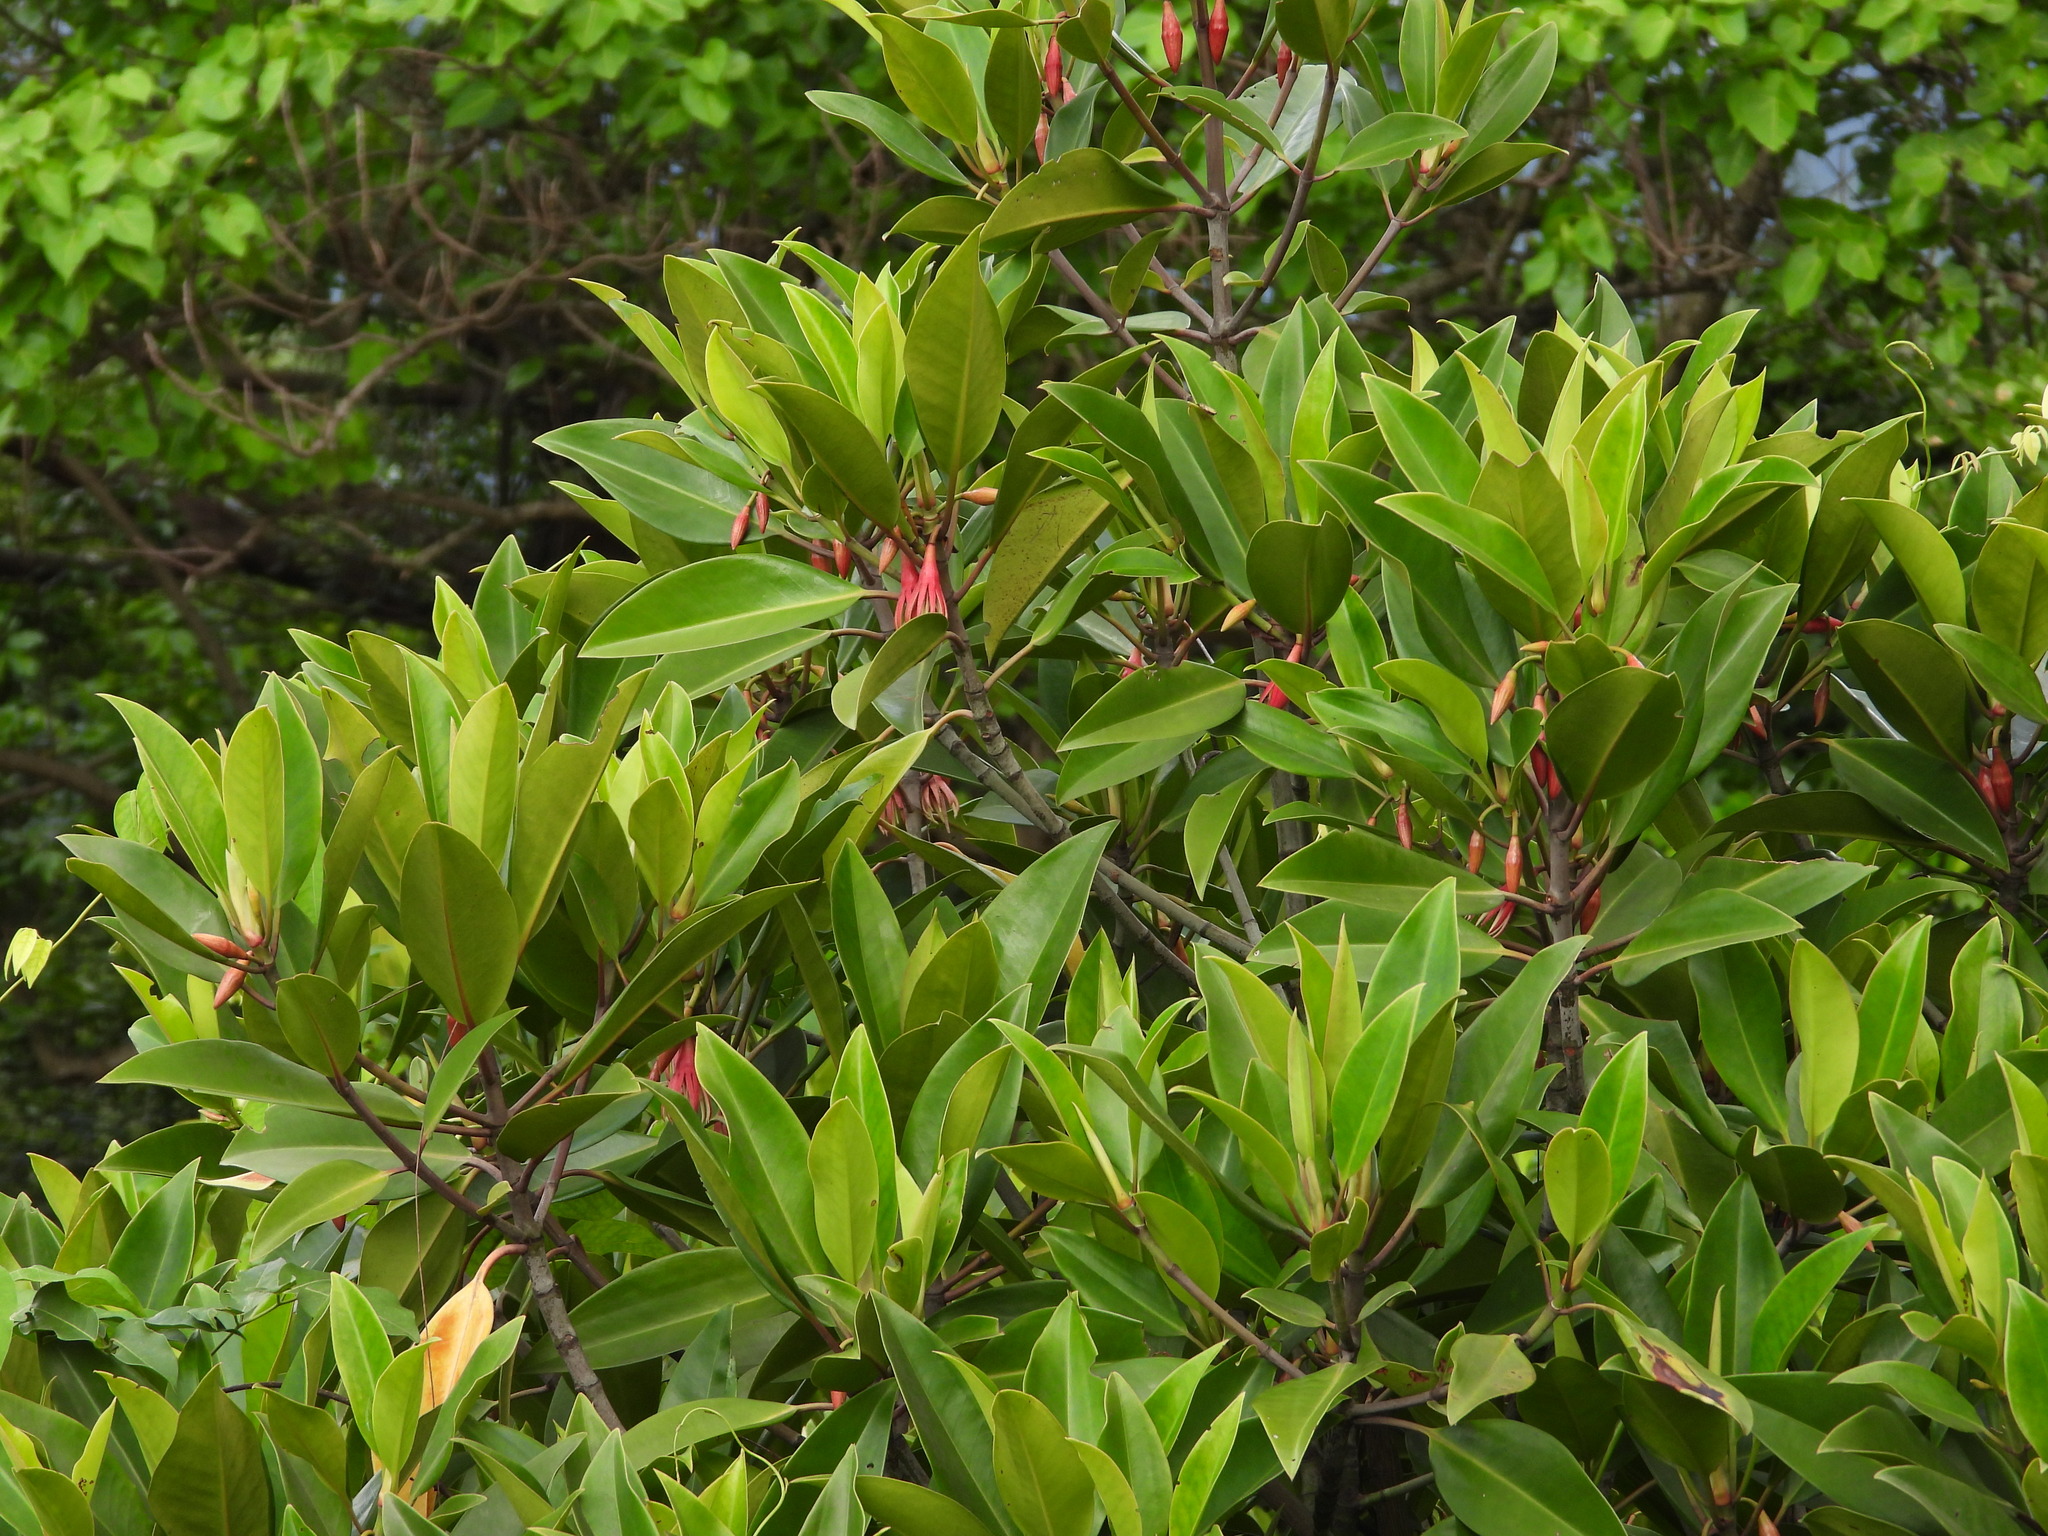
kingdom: Plantae
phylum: Tracheophyta
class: Magnoliopsida
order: Malpighiales
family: Rhizophoraceae
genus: Bruguiera
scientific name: Bruguiera gymnorhiza
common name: Oriental mangrove
